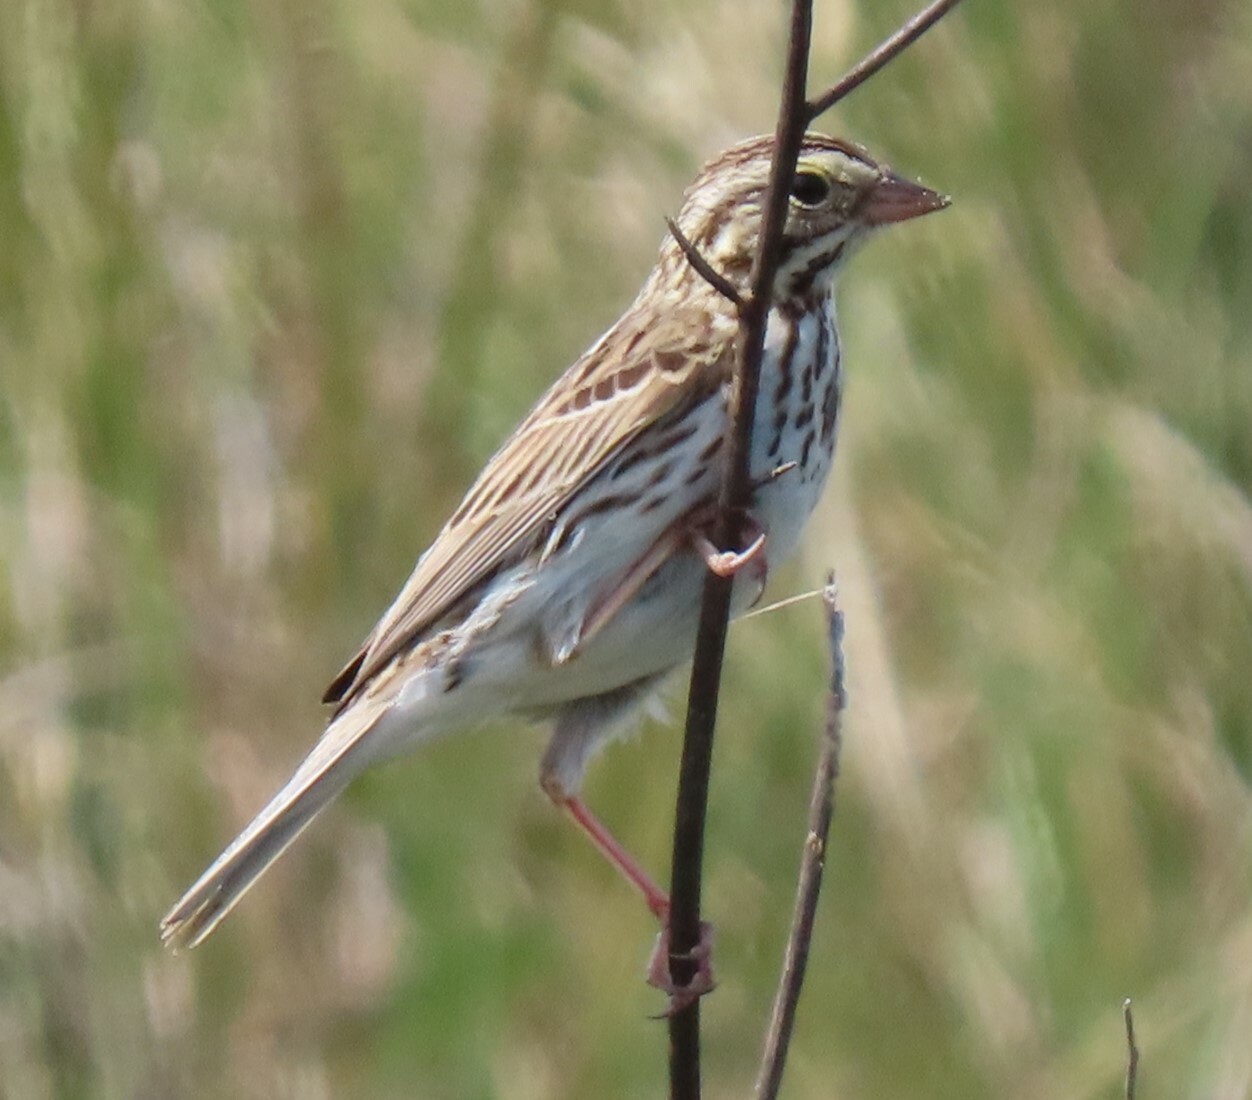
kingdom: Animalia
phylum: Chordata
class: Aves
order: Passeriformes
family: Passerellidae
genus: Passerculus
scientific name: Passerculus sandwichensis
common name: Savannah sparrow
